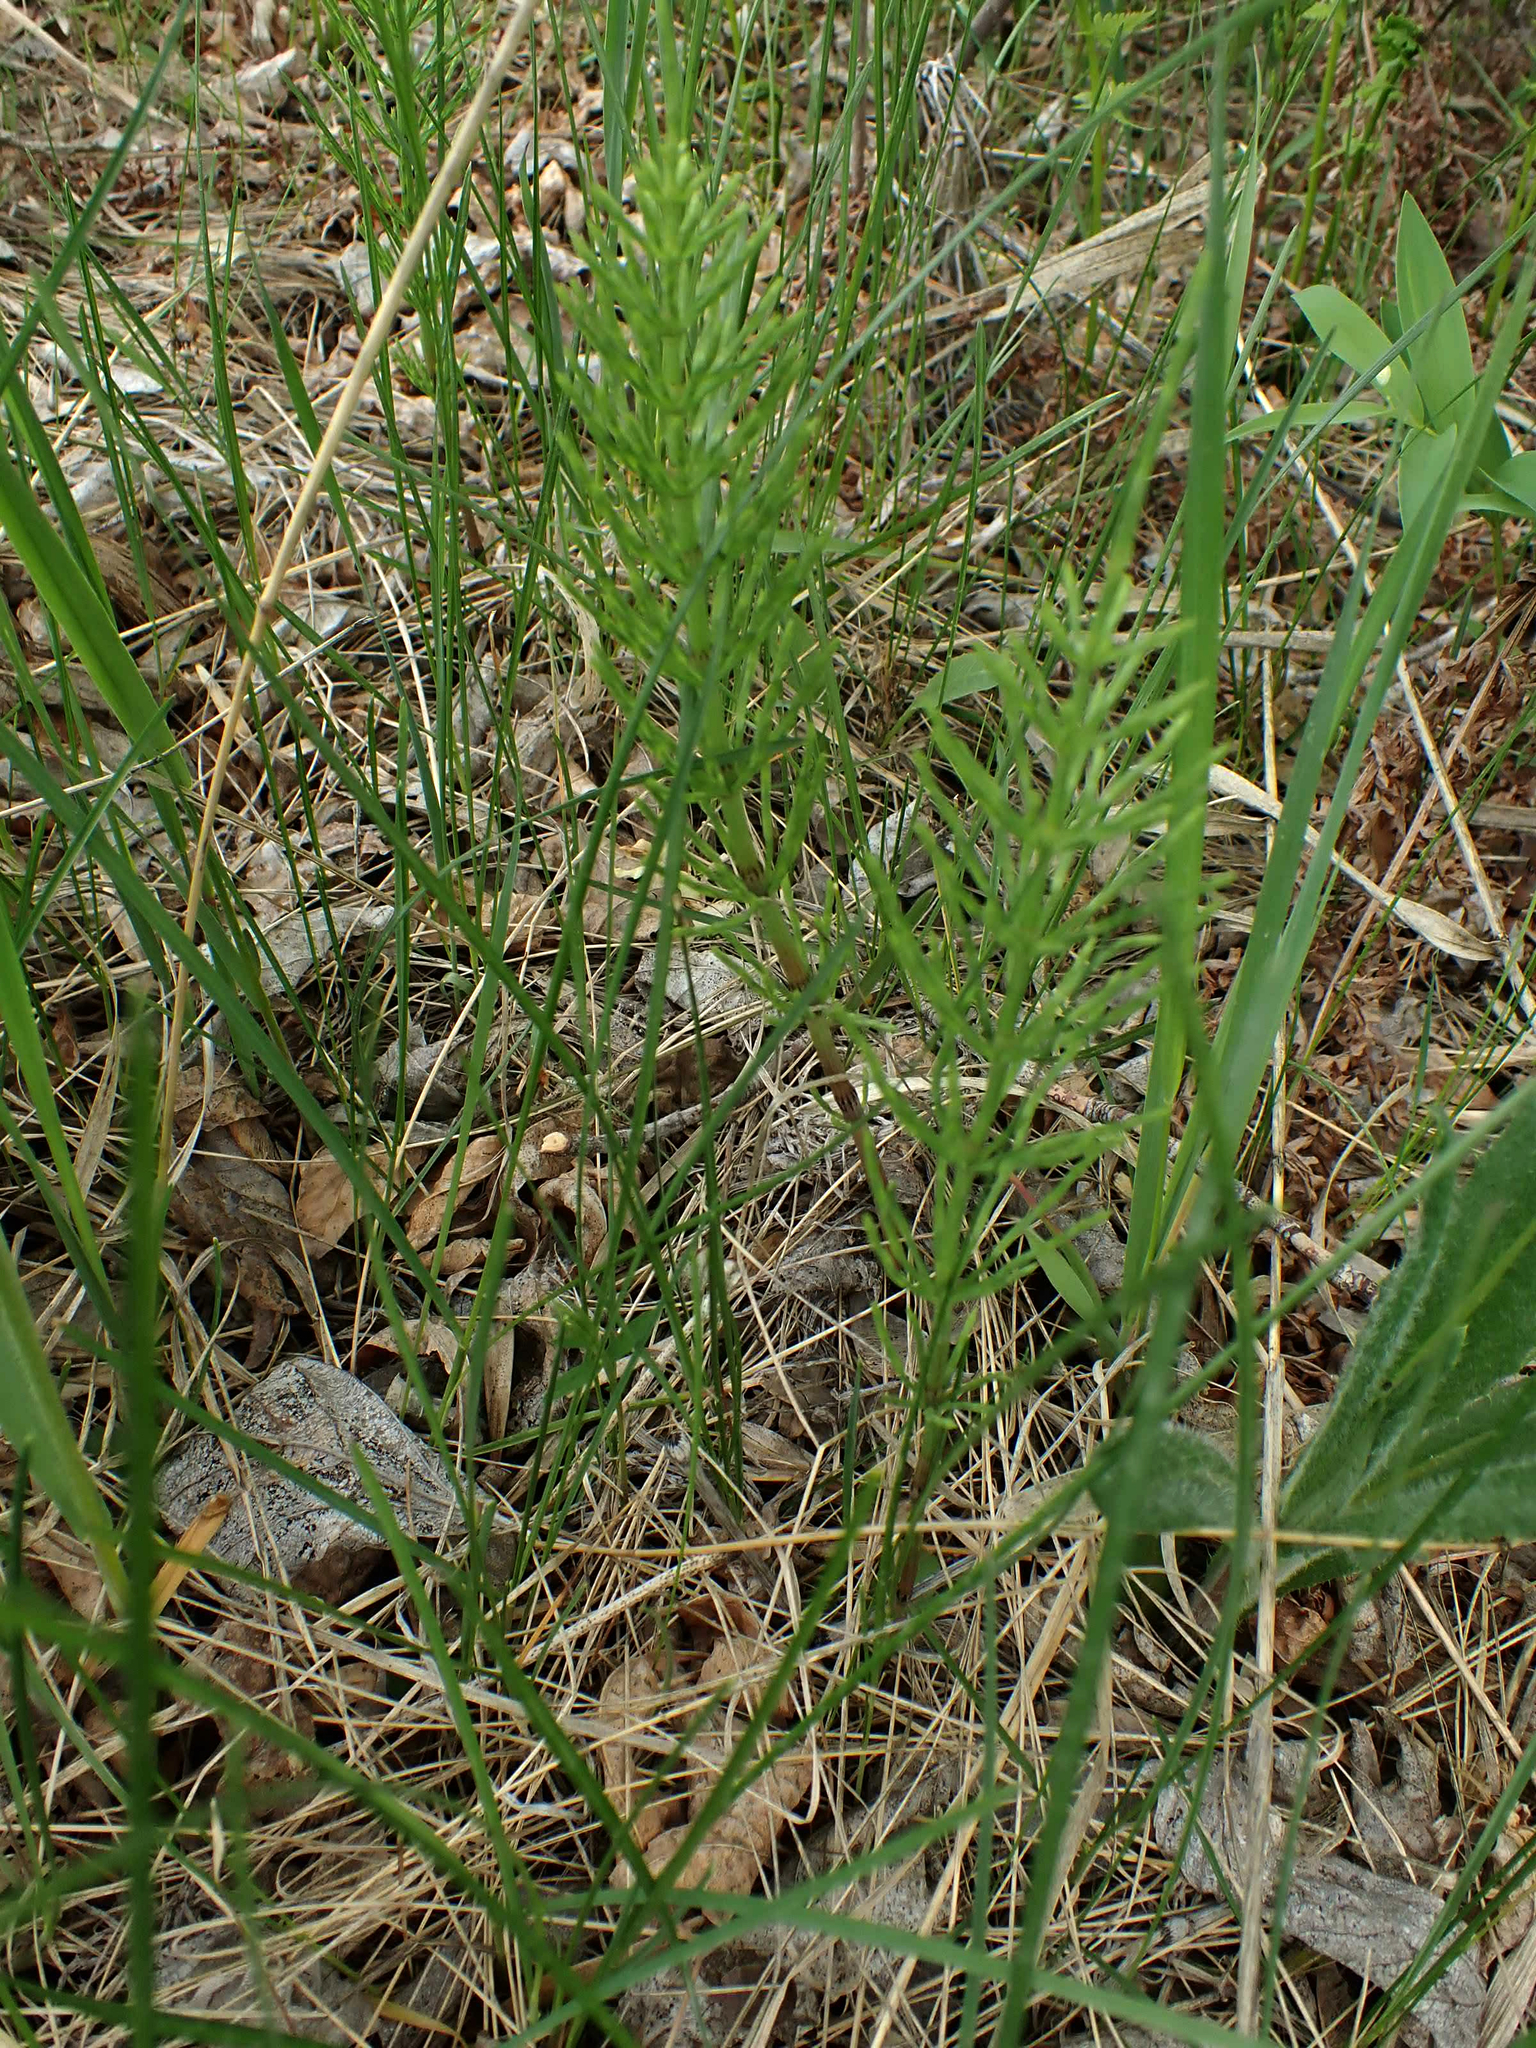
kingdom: Plantae
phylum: Tracheophyta
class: Polypodiopsida
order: Equisetales
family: Equisetaceae
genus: Equisetum
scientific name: Equisetum arvense
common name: Field horsetail
